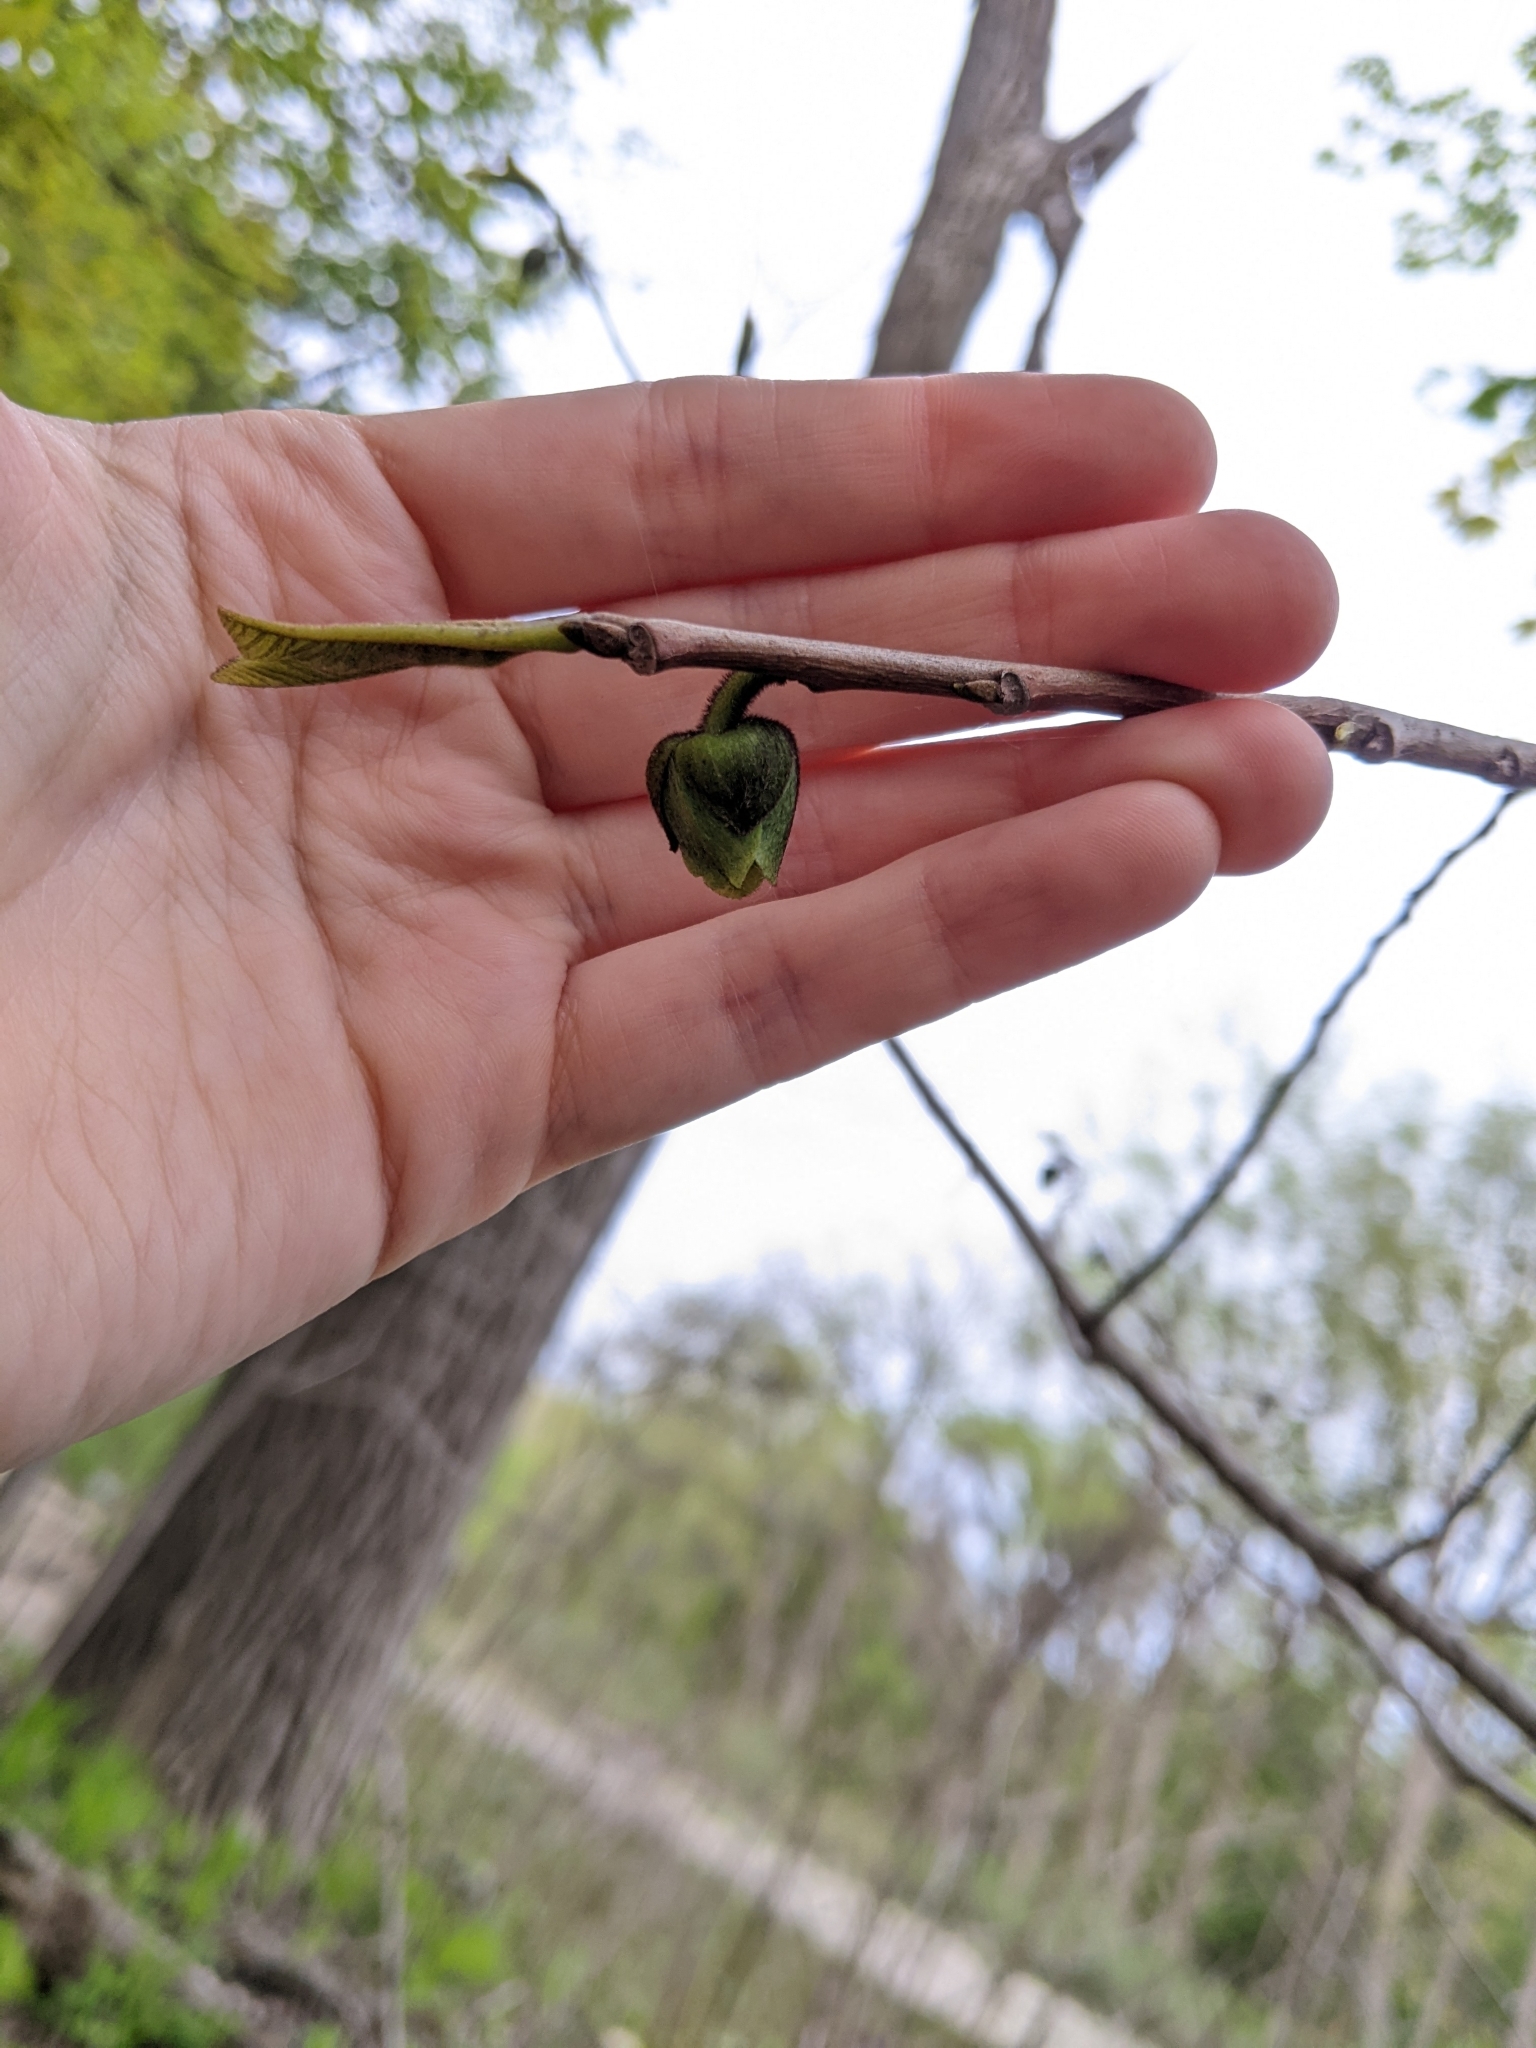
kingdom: Plantae
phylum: Tracheophyta
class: Magnoliopsida
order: Magnoliales
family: Annonaceae
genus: Asimina
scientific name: Asimina triloba
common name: Dog-banana
